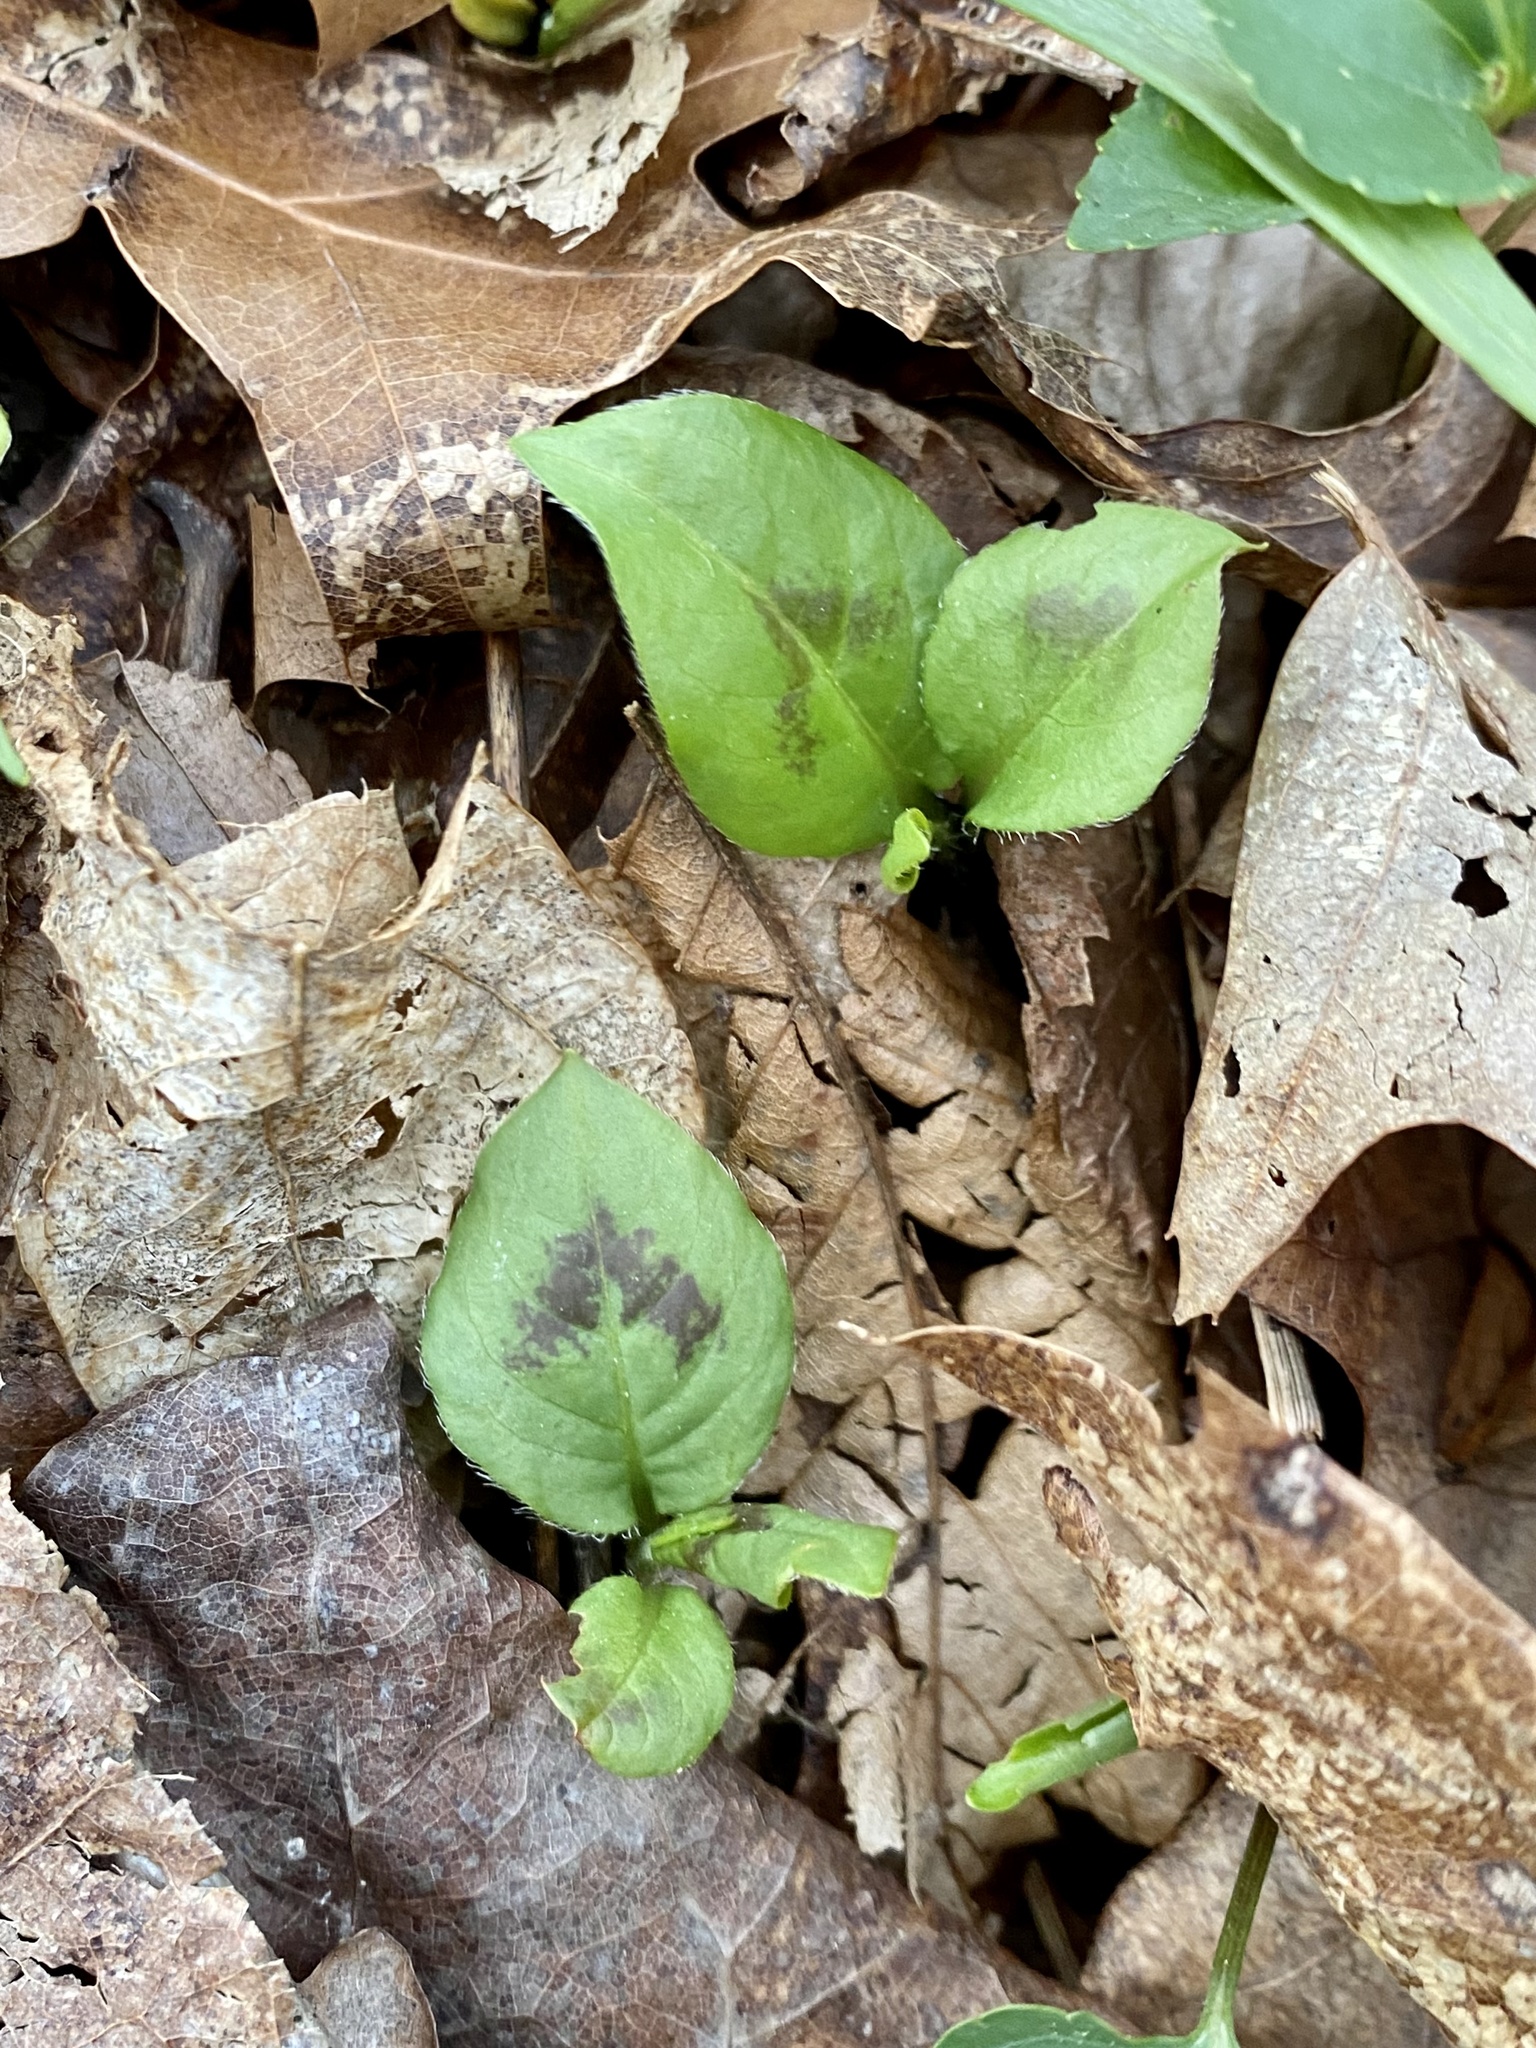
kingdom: Plantae
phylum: Tracheophyta
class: Magnoliopsida
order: Caryophyllales
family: Polygonaceae
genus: Persicaria
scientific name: Persicaria virginiana
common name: Jumpseed
